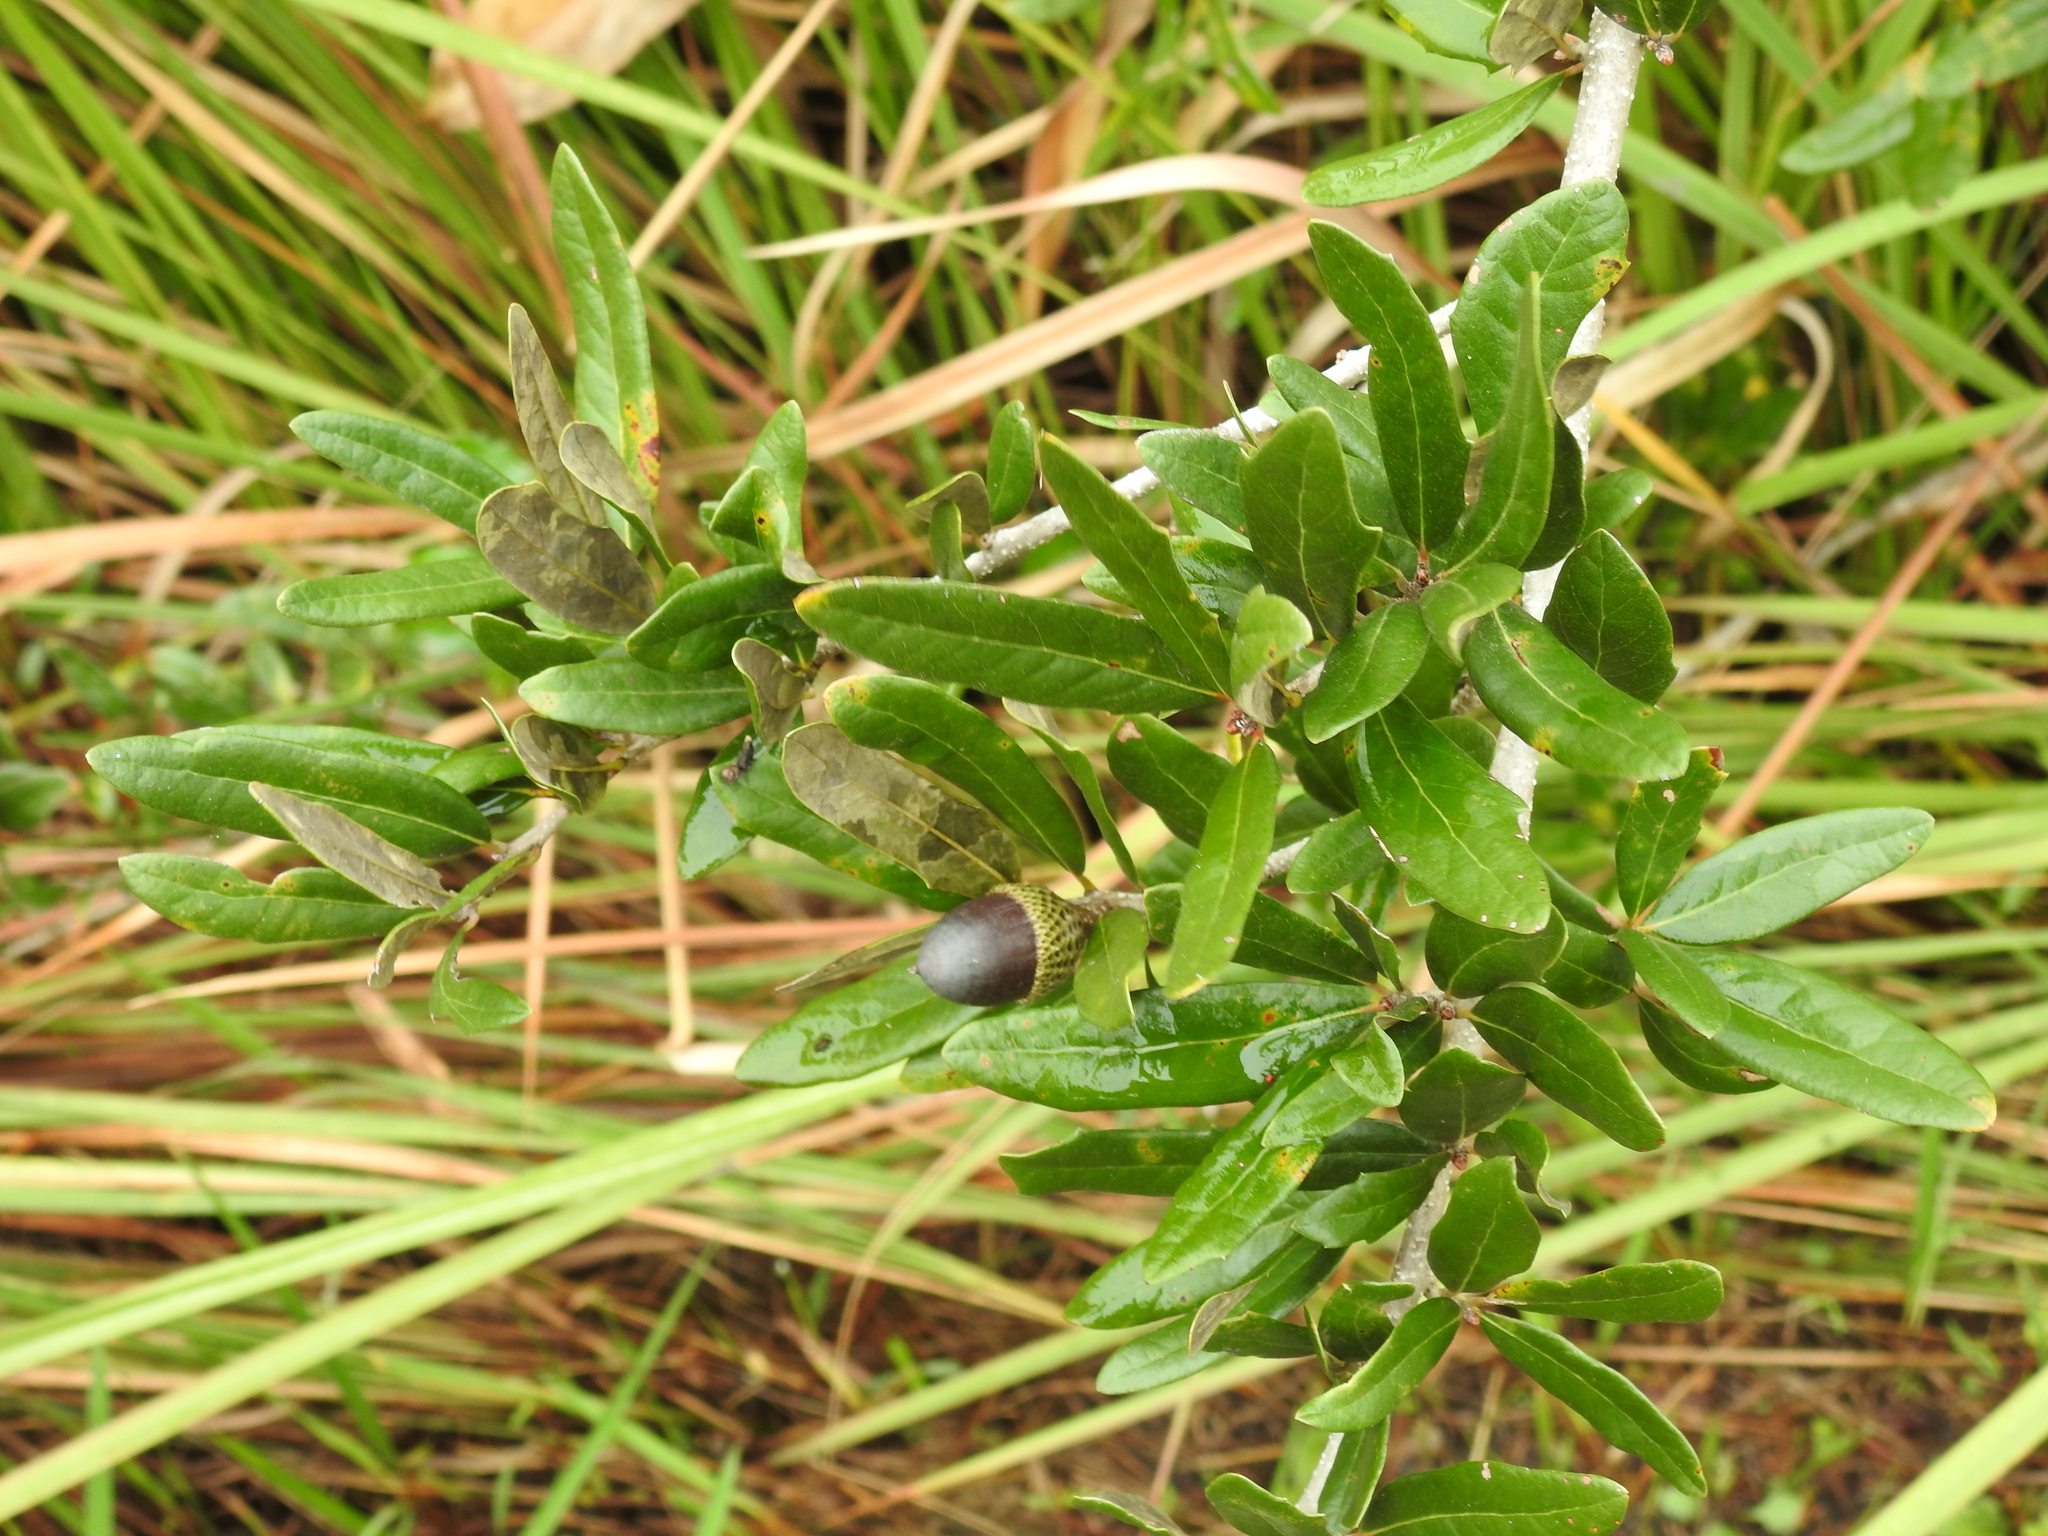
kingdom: Plantae
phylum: Tracheophyta
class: Magnoliopsida
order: Fagales
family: Fagaceae
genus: Quercus
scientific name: Quercus minima
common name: Dwarf live oak
